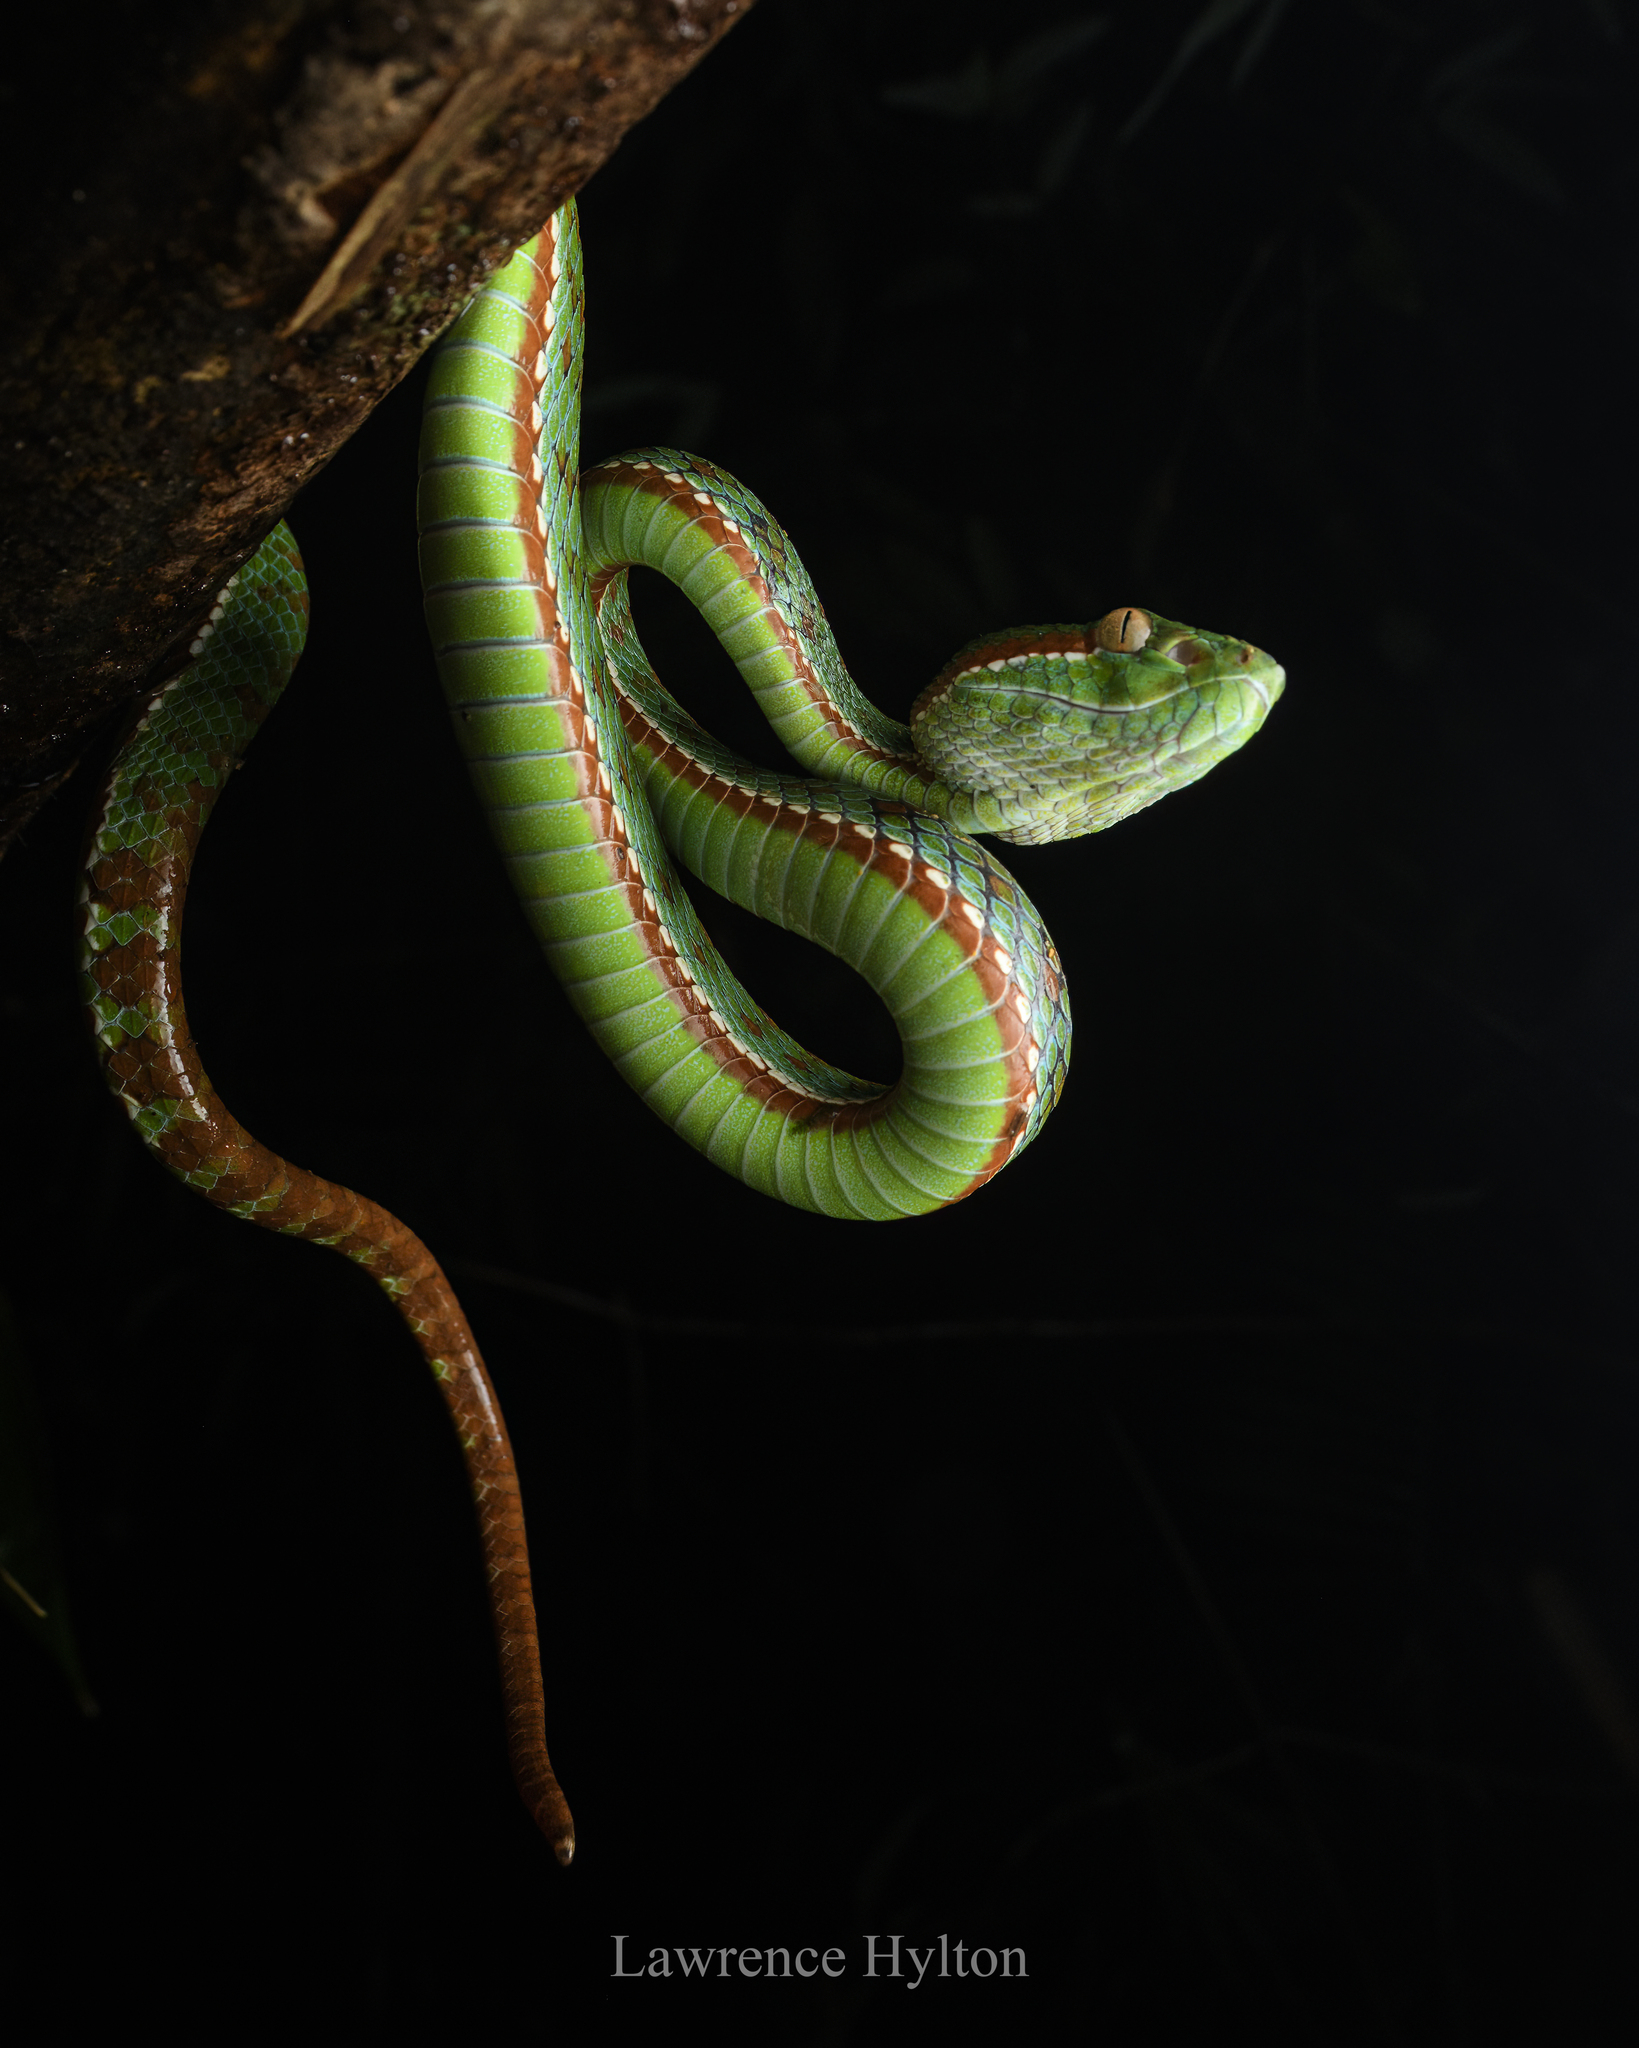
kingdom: Animalia
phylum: Chordata
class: Squamata
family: Viperidae
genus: Trimeresurus
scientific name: Trimeresurus sabahi
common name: Sabah bamboo pit viper
